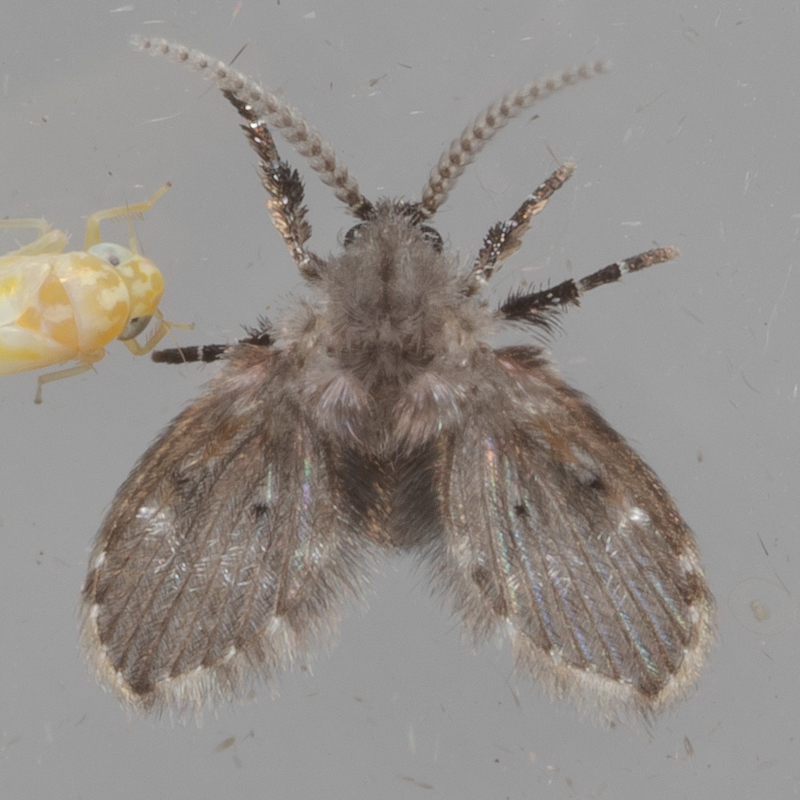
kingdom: Animalia
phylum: Arthropoda
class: Insecta
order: Diptera
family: Psychodidae
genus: Clogmia
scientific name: Clogmia albipunctatus
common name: White-spotted moth fly
